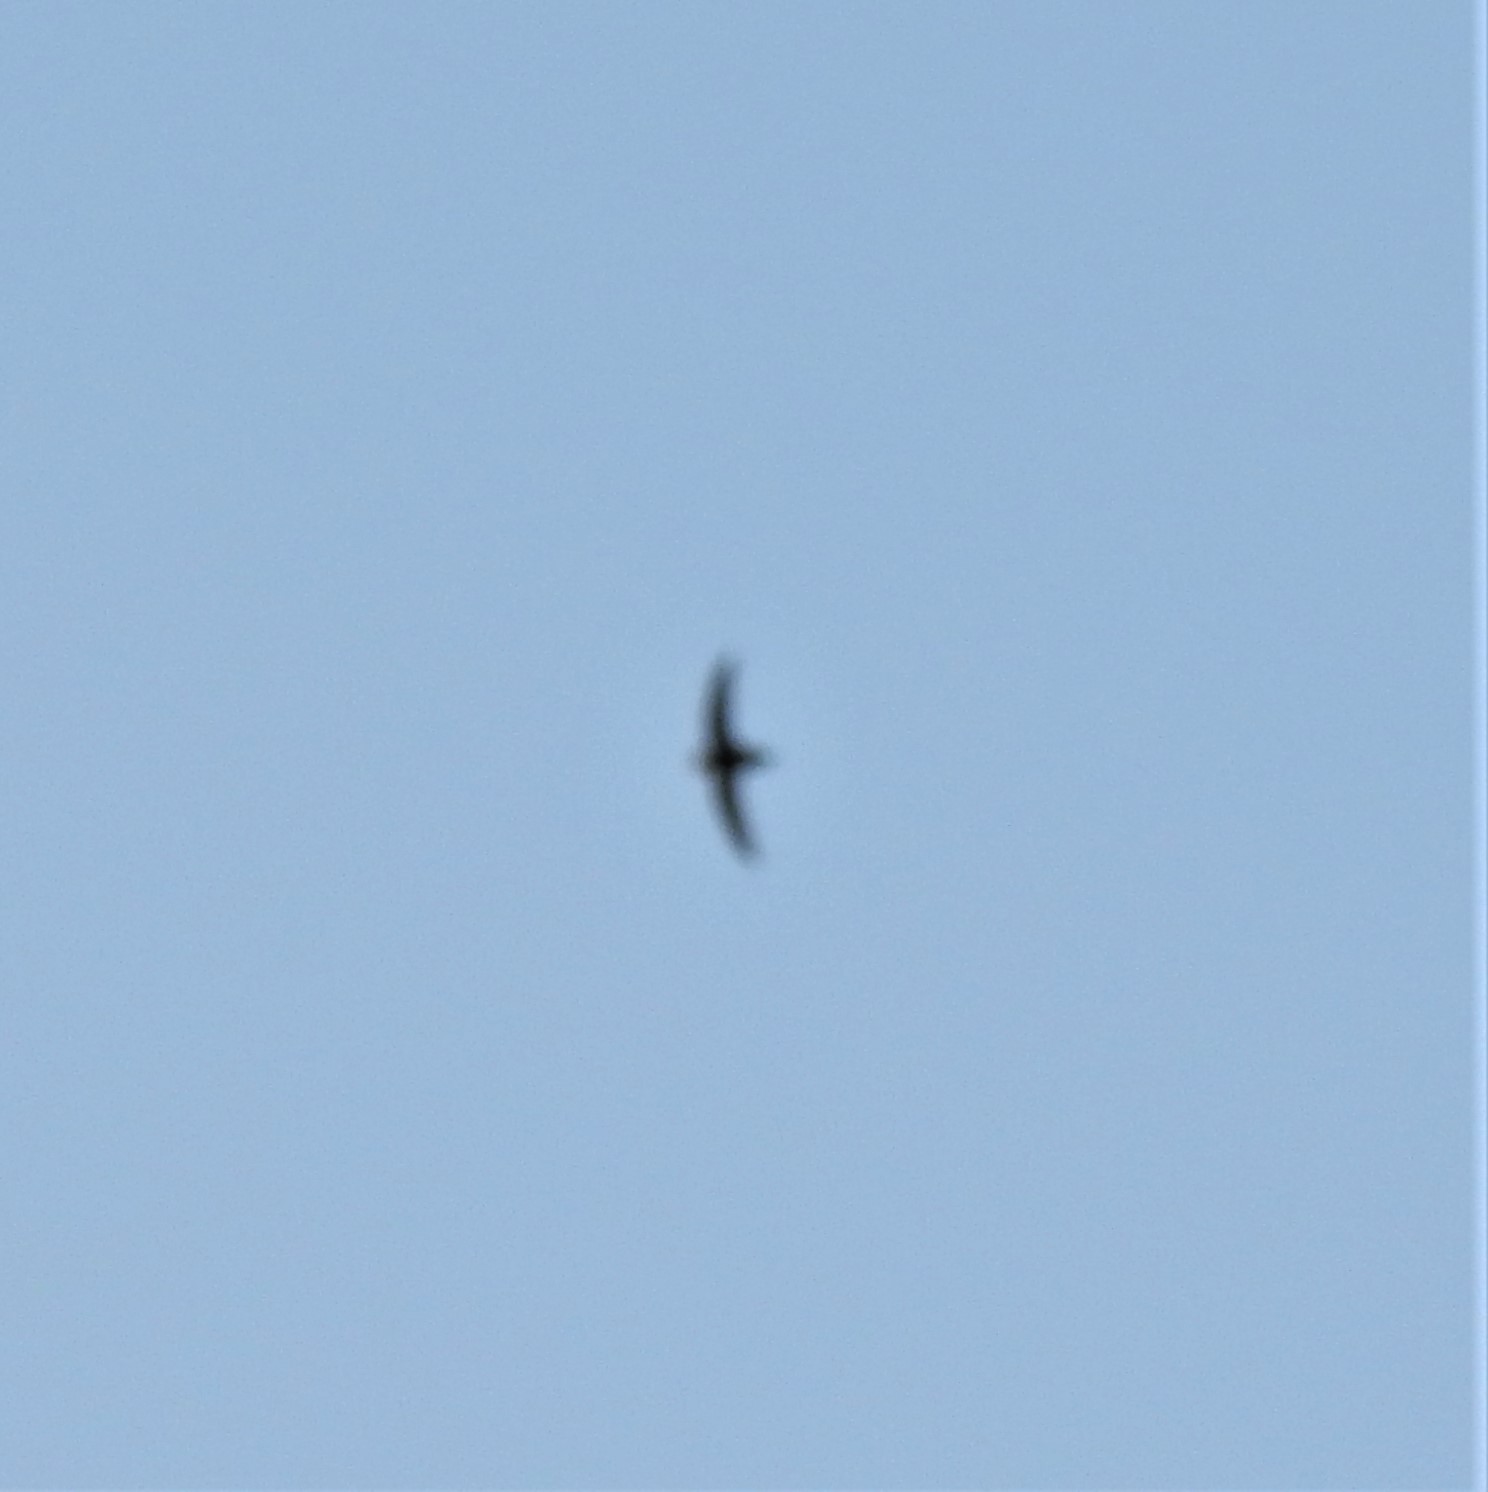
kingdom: Animalia
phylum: Chordata
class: Aves
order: Apodiformes
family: Apodidae
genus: Chaetura
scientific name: Chaetura pelagica
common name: Chimney swift
